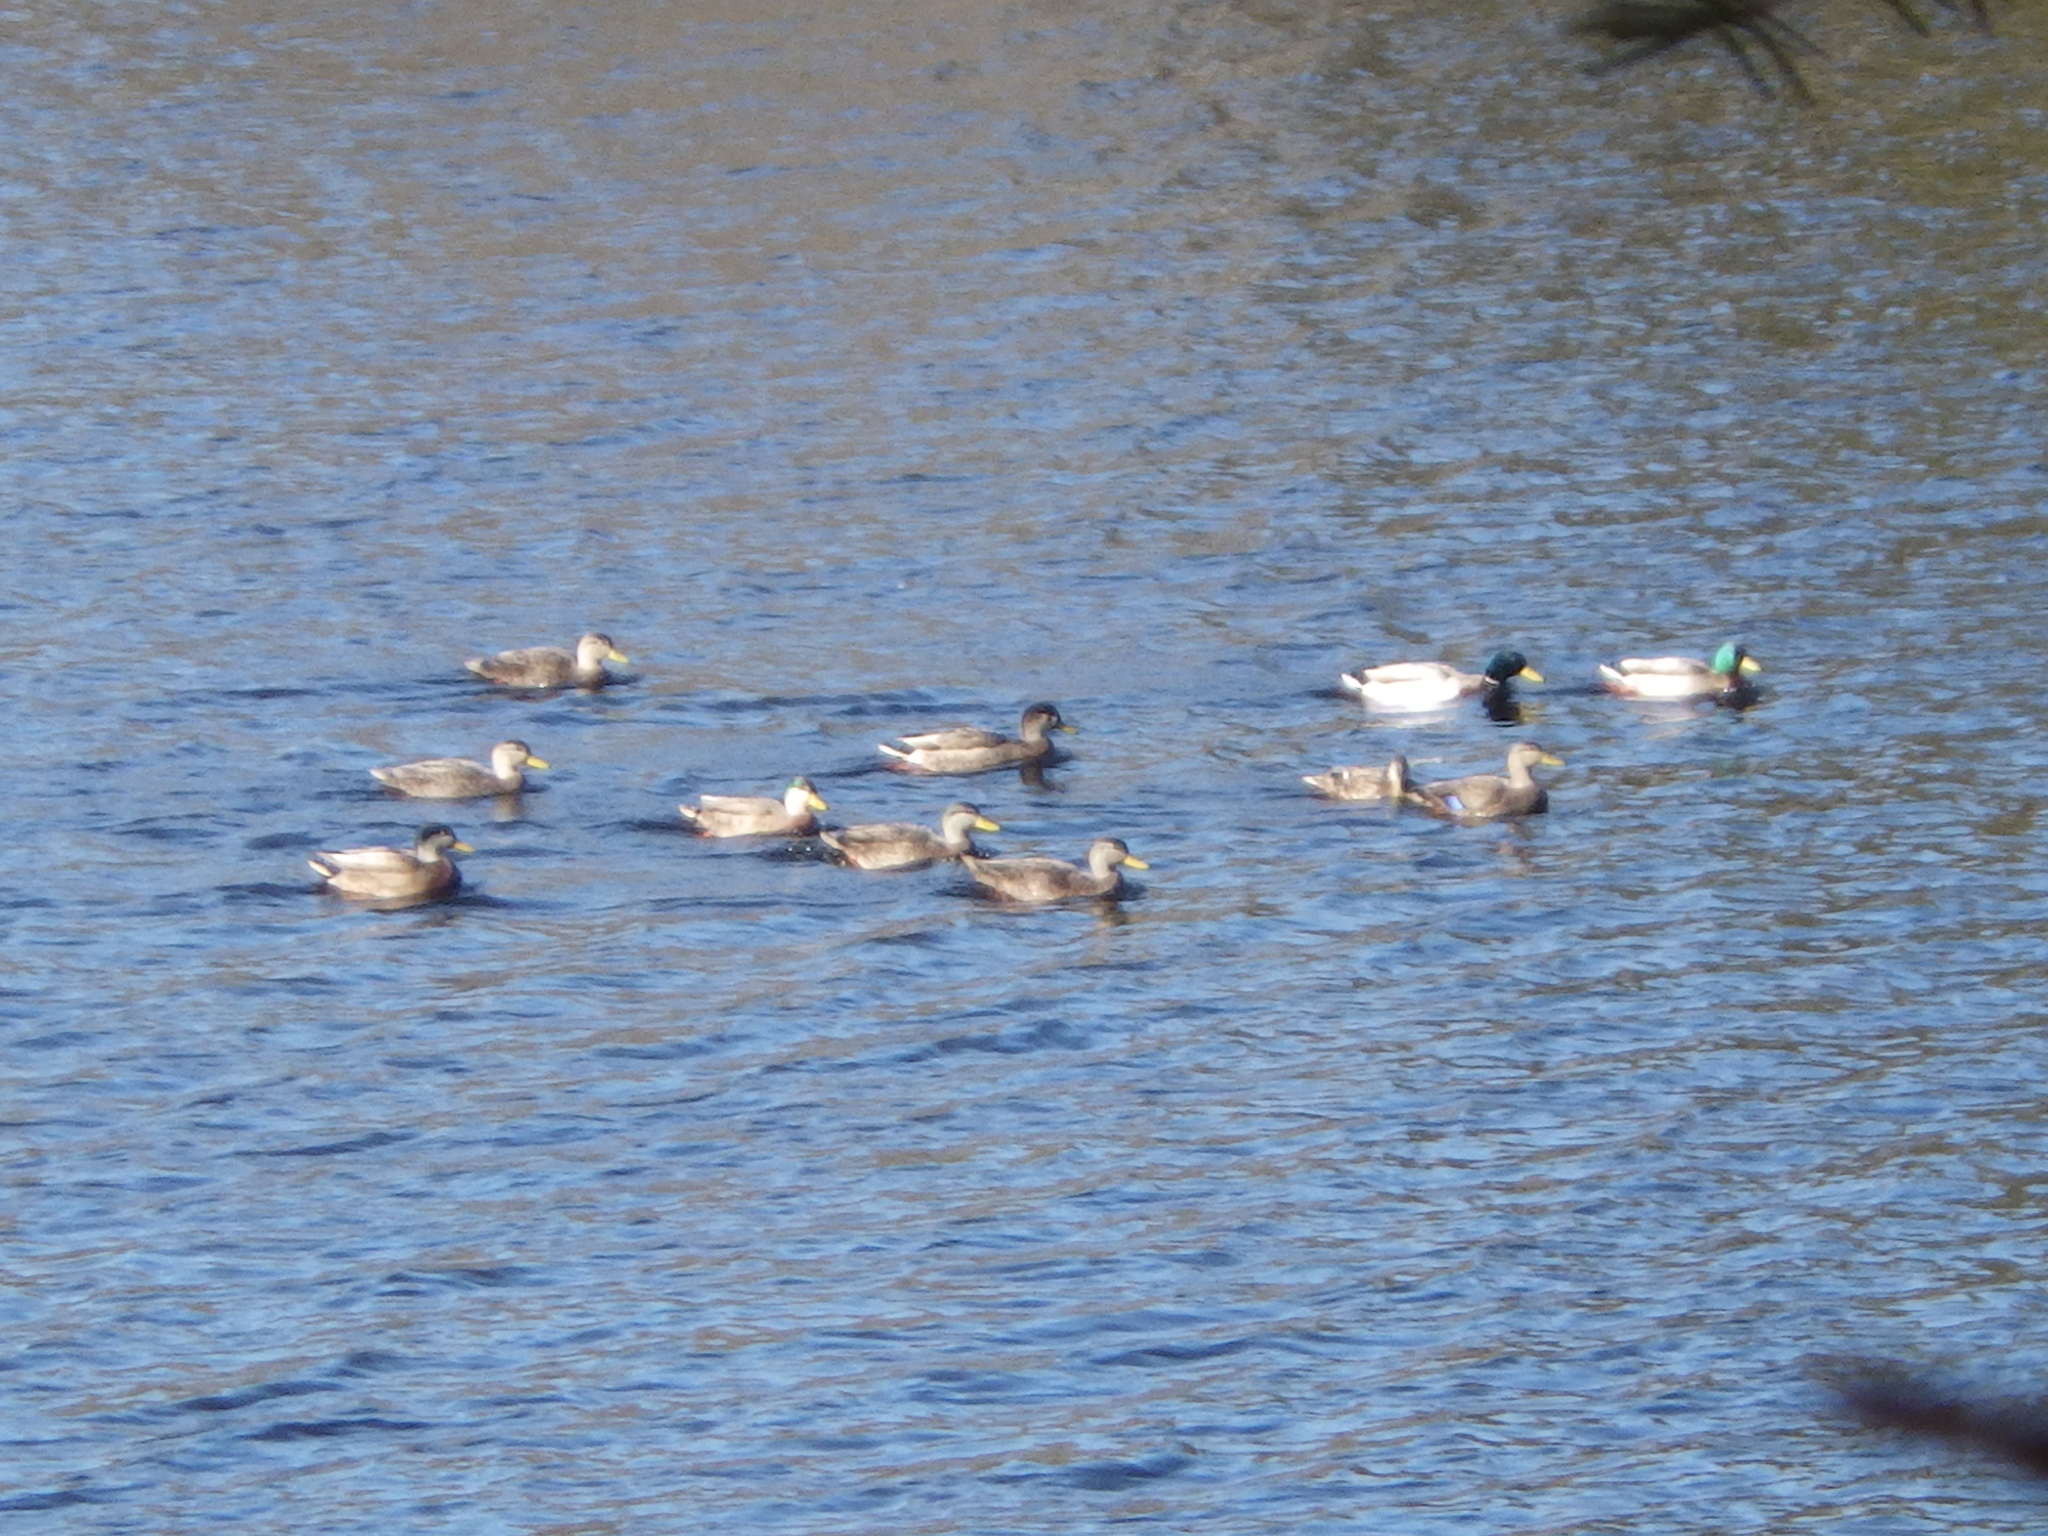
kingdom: Animalia
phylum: Chordata
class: Aves
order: Anseriformes
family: Anatidae
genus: Anas
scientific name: Anas rubripes
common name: American black duck
